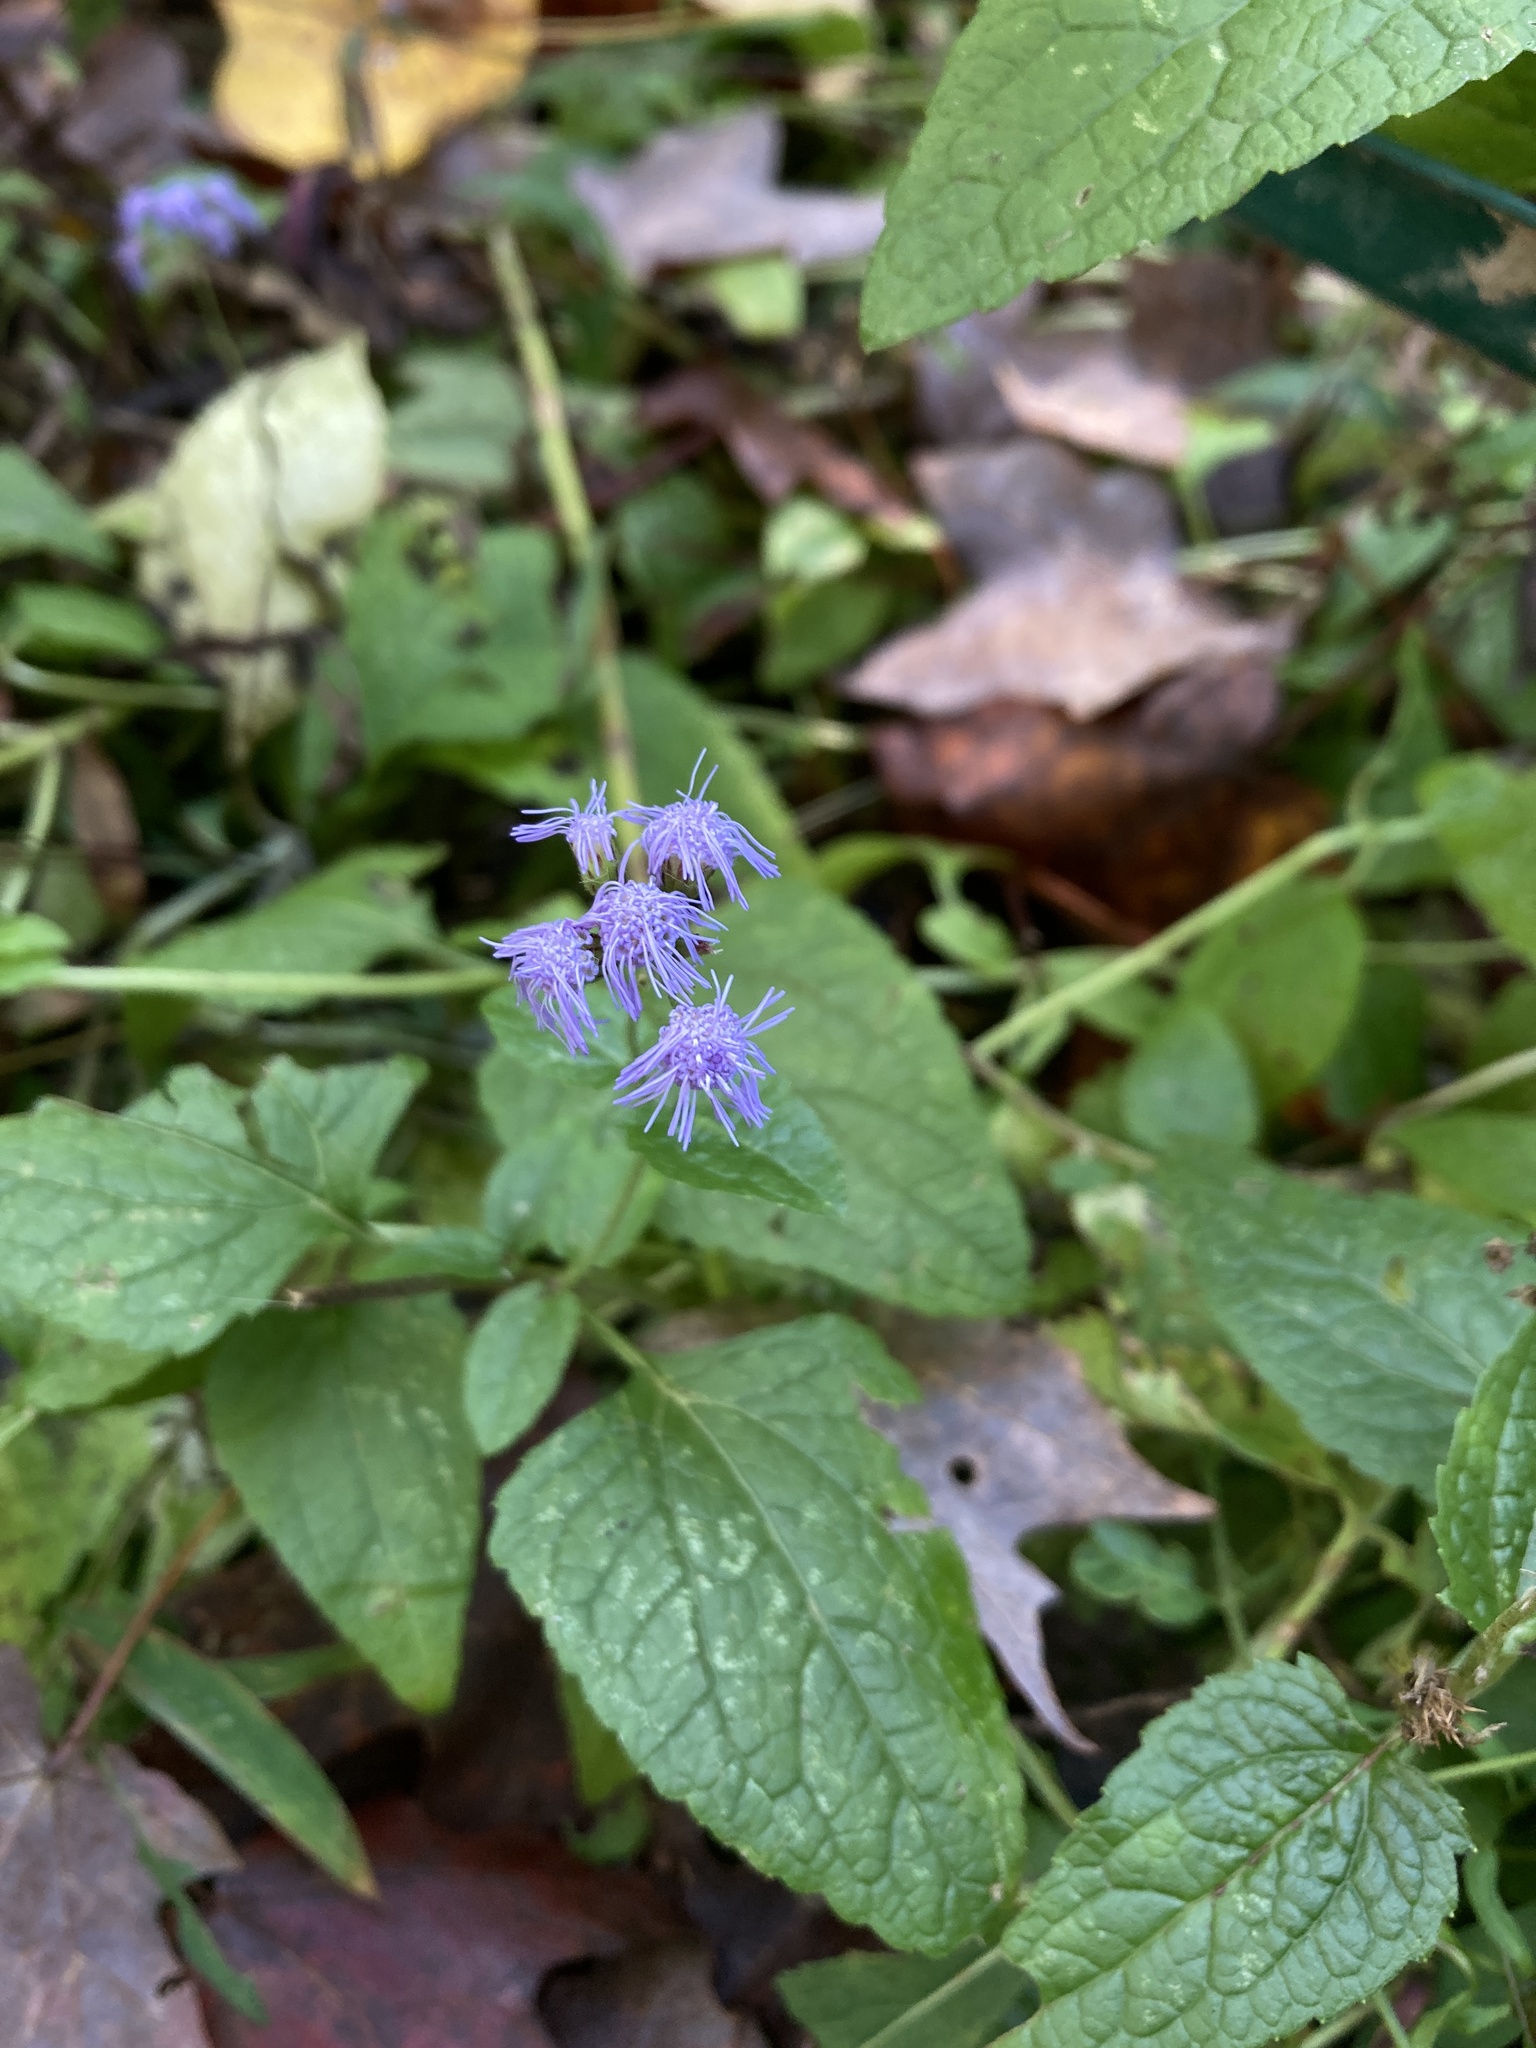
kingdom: Plantae
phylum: Tracheophyta
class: Magnoliopsida
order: Asterales
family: Asteraceae
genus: Conoclinium
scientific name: Conoclinium coelestinum
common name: Blue mistflower
